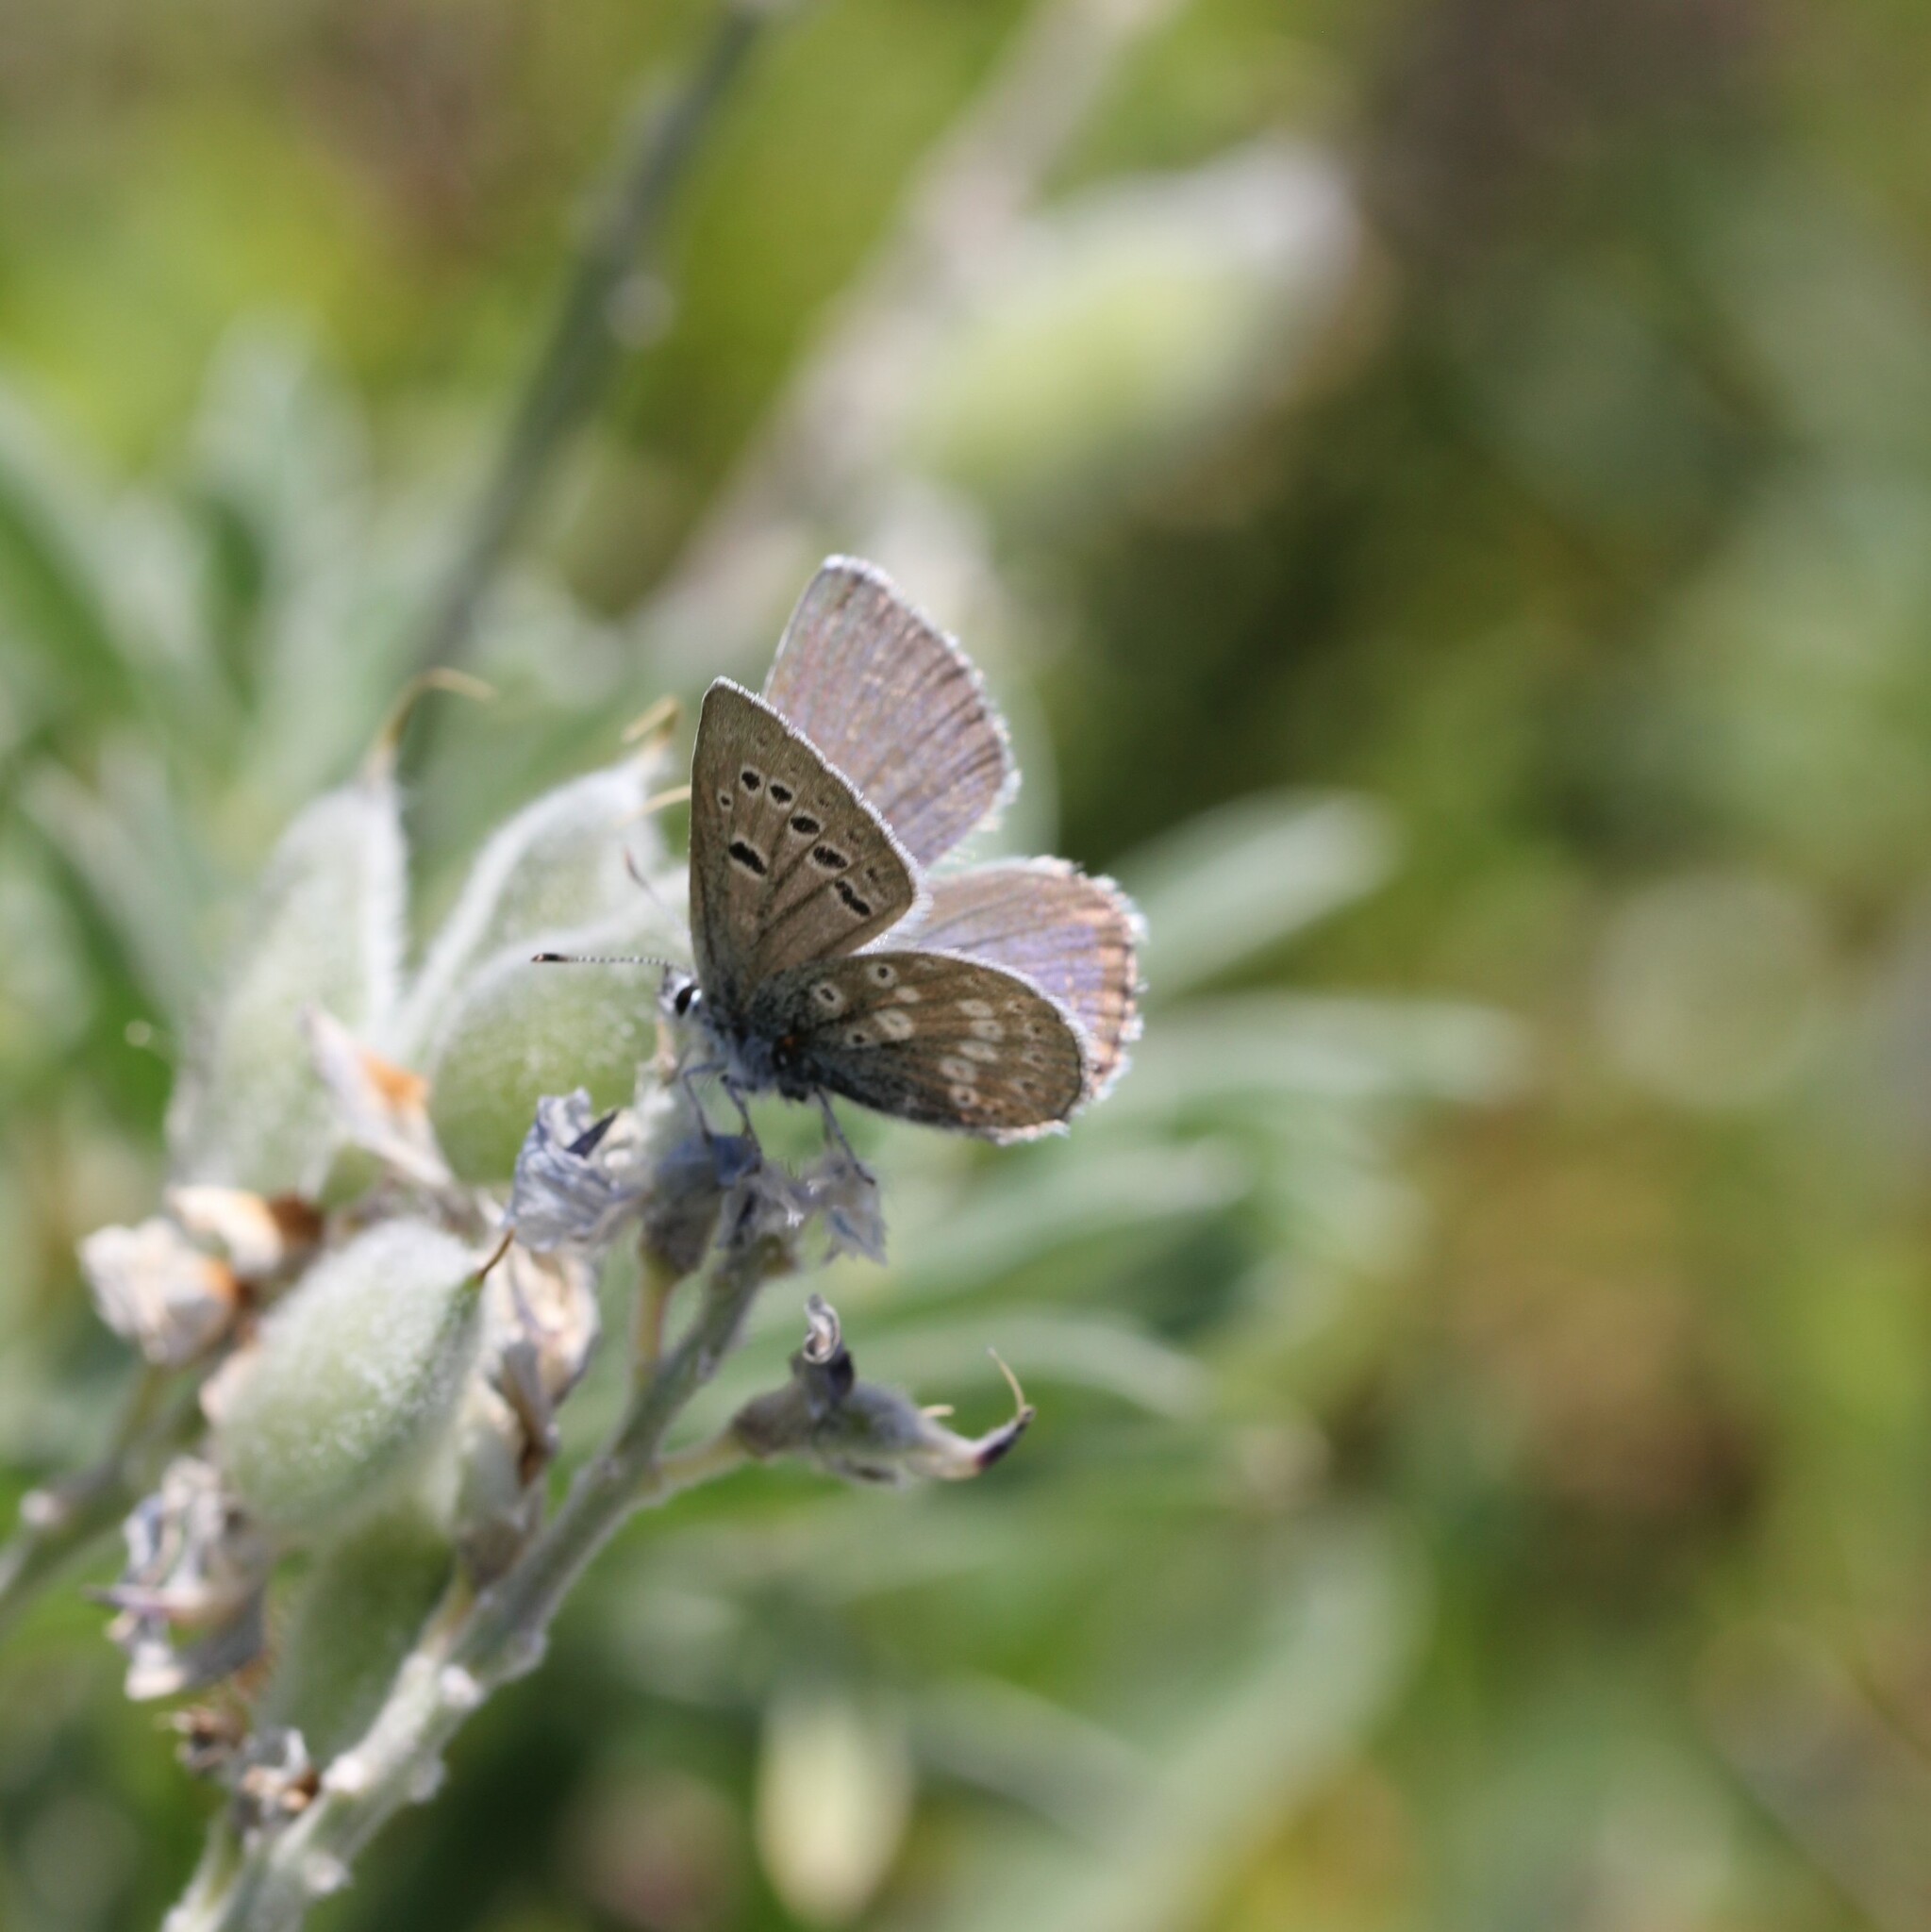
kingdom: Animalia
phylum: Arthropoda
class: Insecta
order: Lepidoptera
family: Lycaenidae
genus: Icaricia
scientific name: Icaricia icarioides
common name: Boisduval's blue
